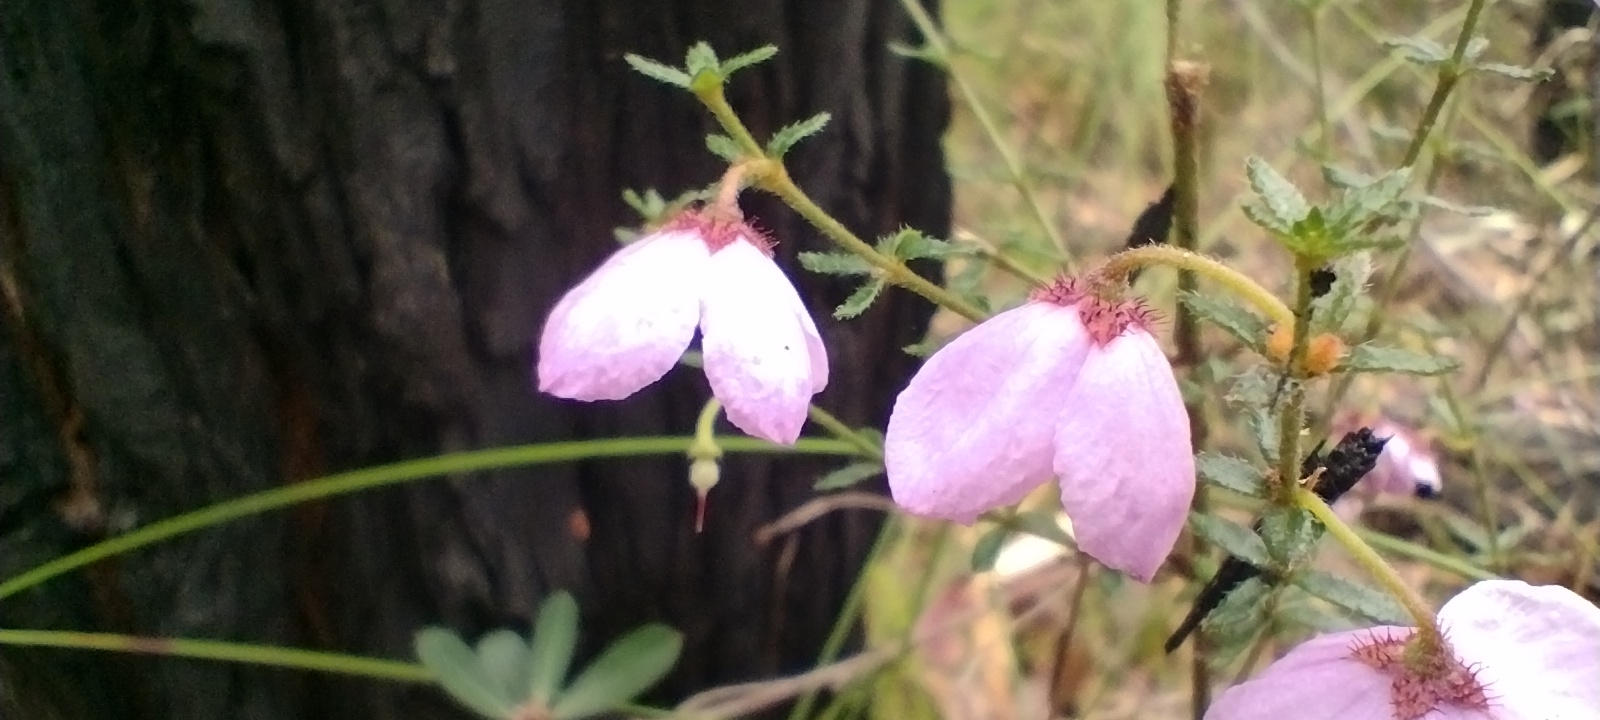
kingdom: Plantae
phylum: Tracheophyta
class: Magnoliopsida
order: Oxalidales
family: Elaeocarpaceae
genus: Tetratheca
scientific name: Tetratheca thymifolia
